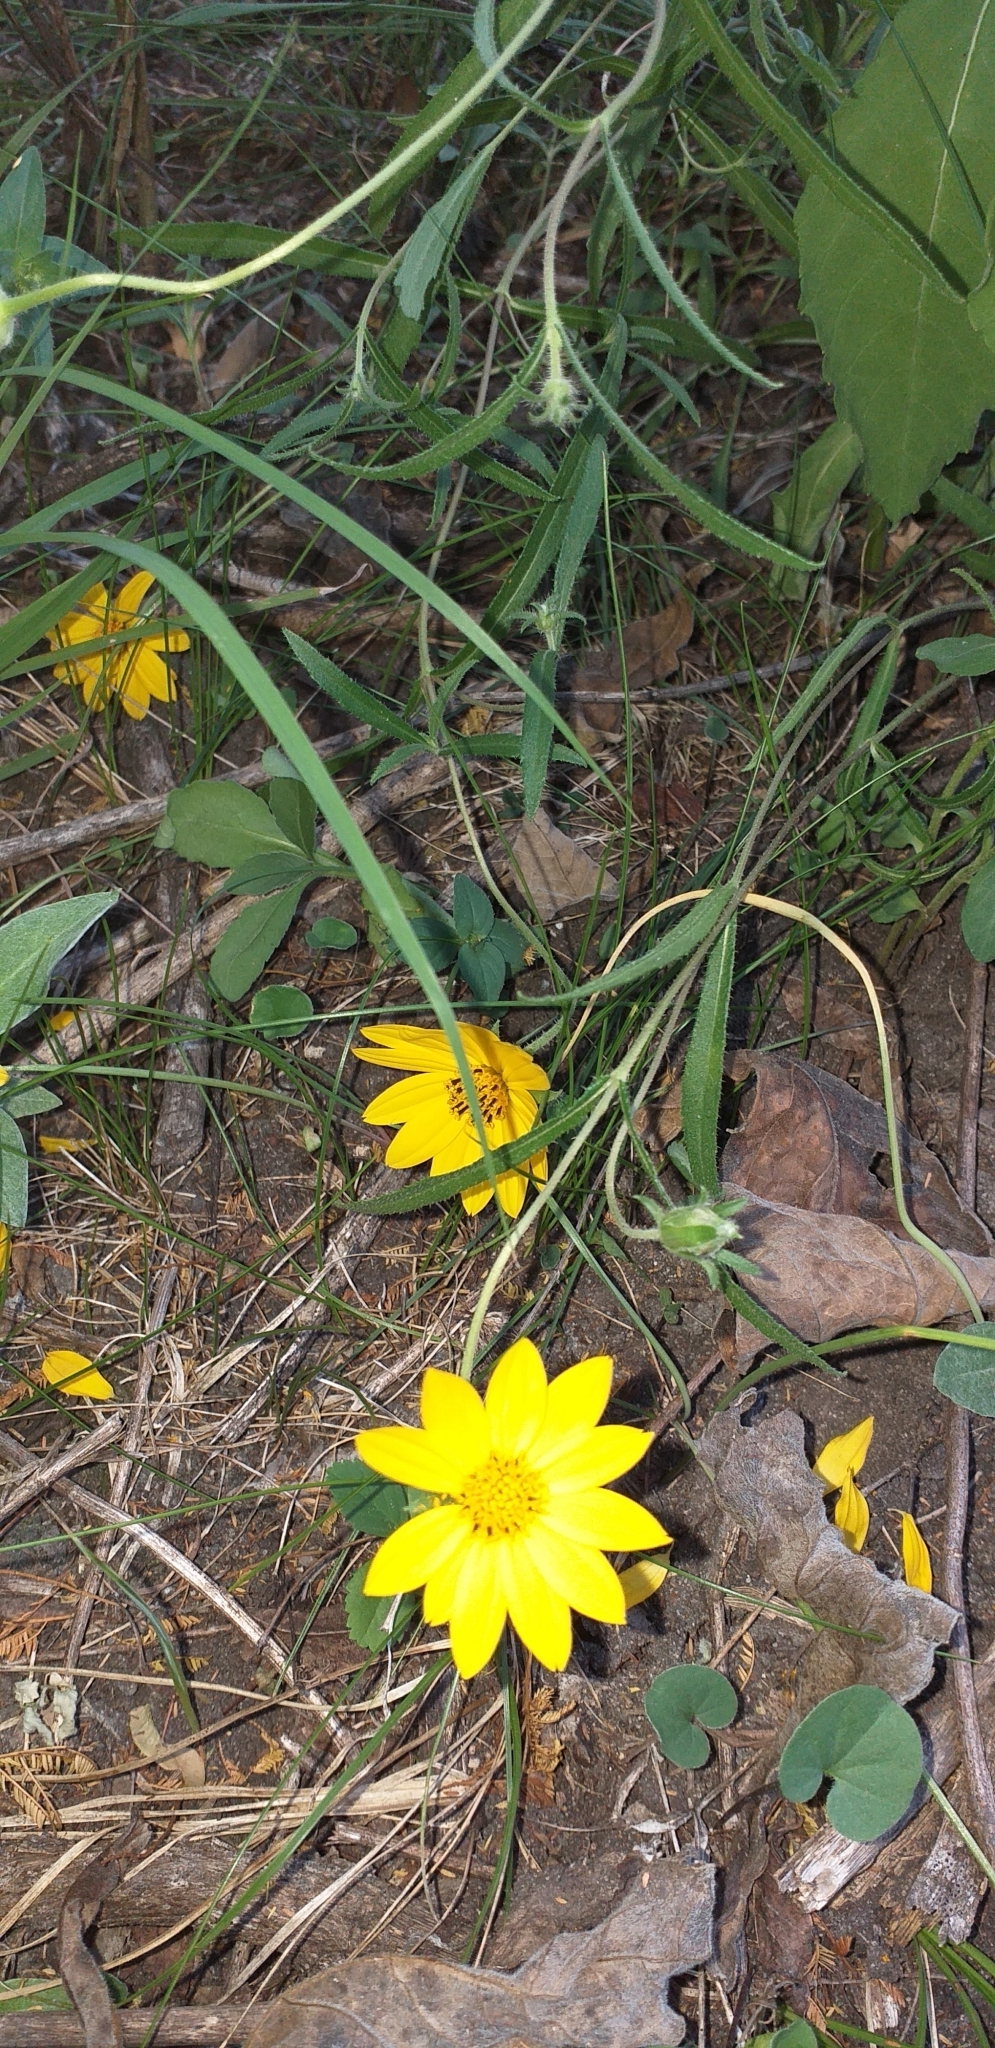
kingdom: Plantae
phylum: Tracheophyta
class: Magnoliopsida
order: Asterales
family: Asteraceae
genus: Wedelia
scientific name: Wedelia montevidensis
